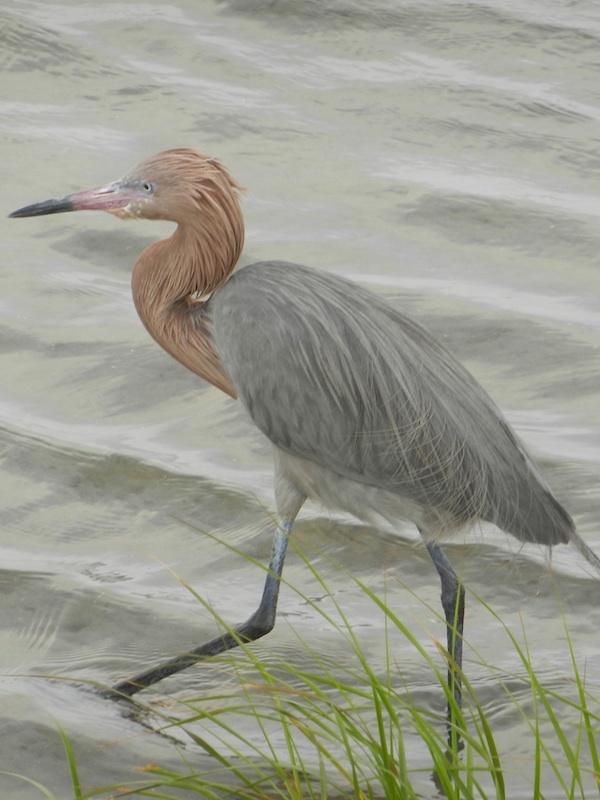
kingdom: Animalia
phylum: Chordata
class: Aves
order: Pelecaniformes
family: Ardeidae
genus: Egretta
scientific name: Egretta rufescens
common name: Reddish egret
